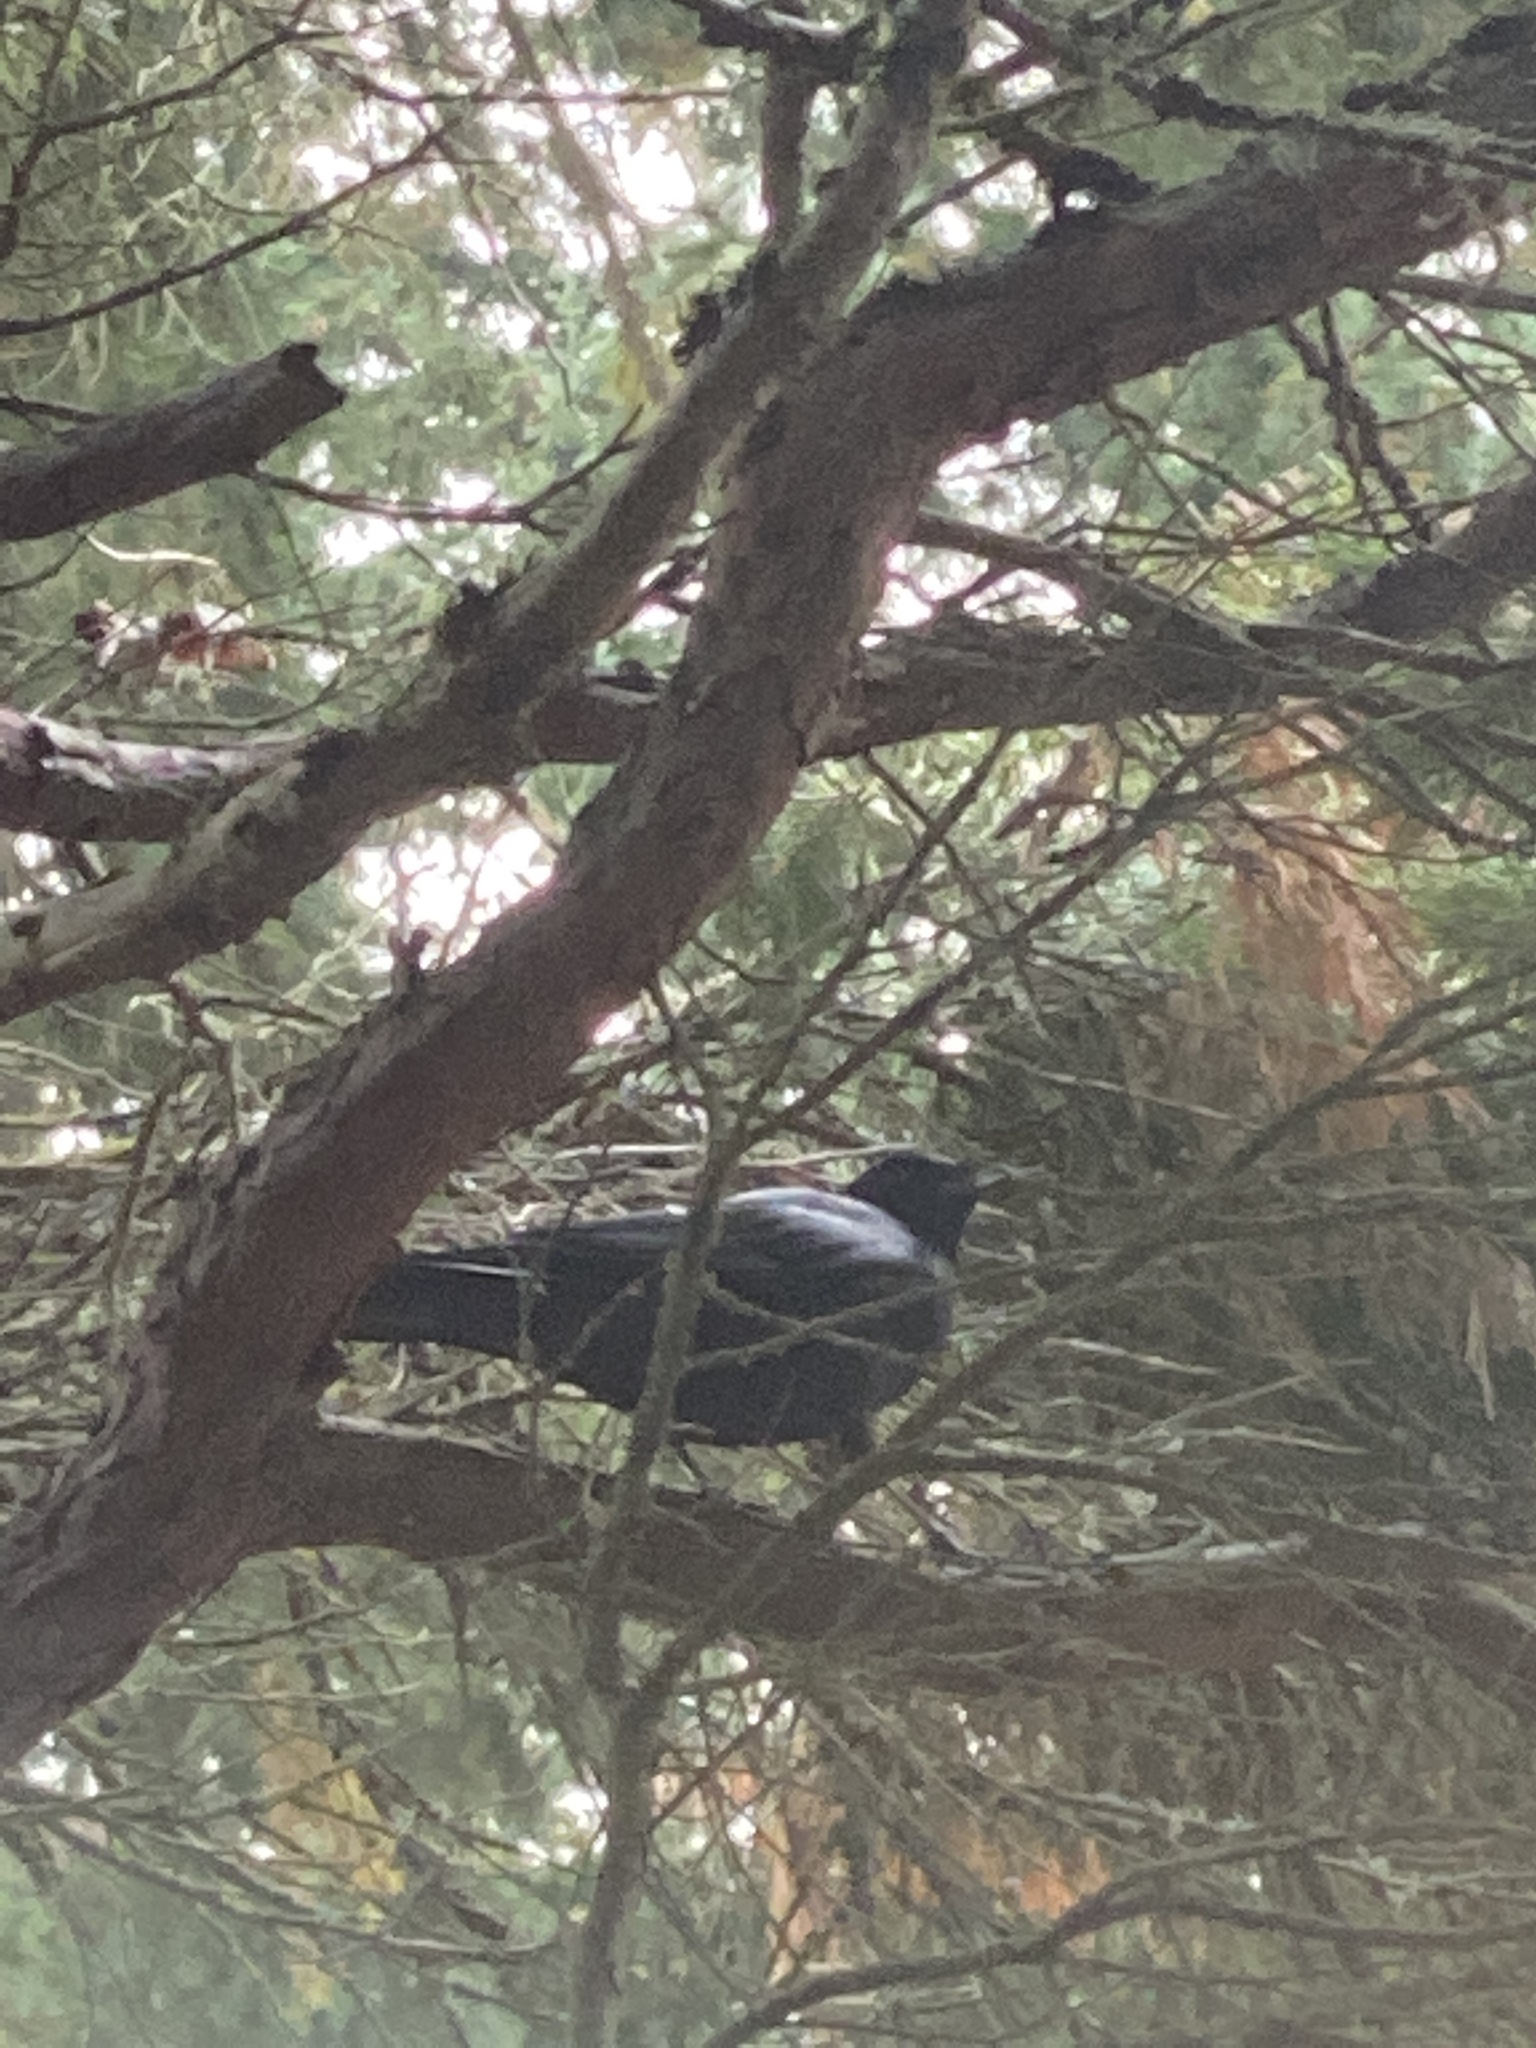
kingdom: Animalia
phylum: Chordata
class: Aves
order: Passeriformes
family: Corvidae
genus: Corvus
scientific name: Corvus brachyrhynchos
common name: American crow
